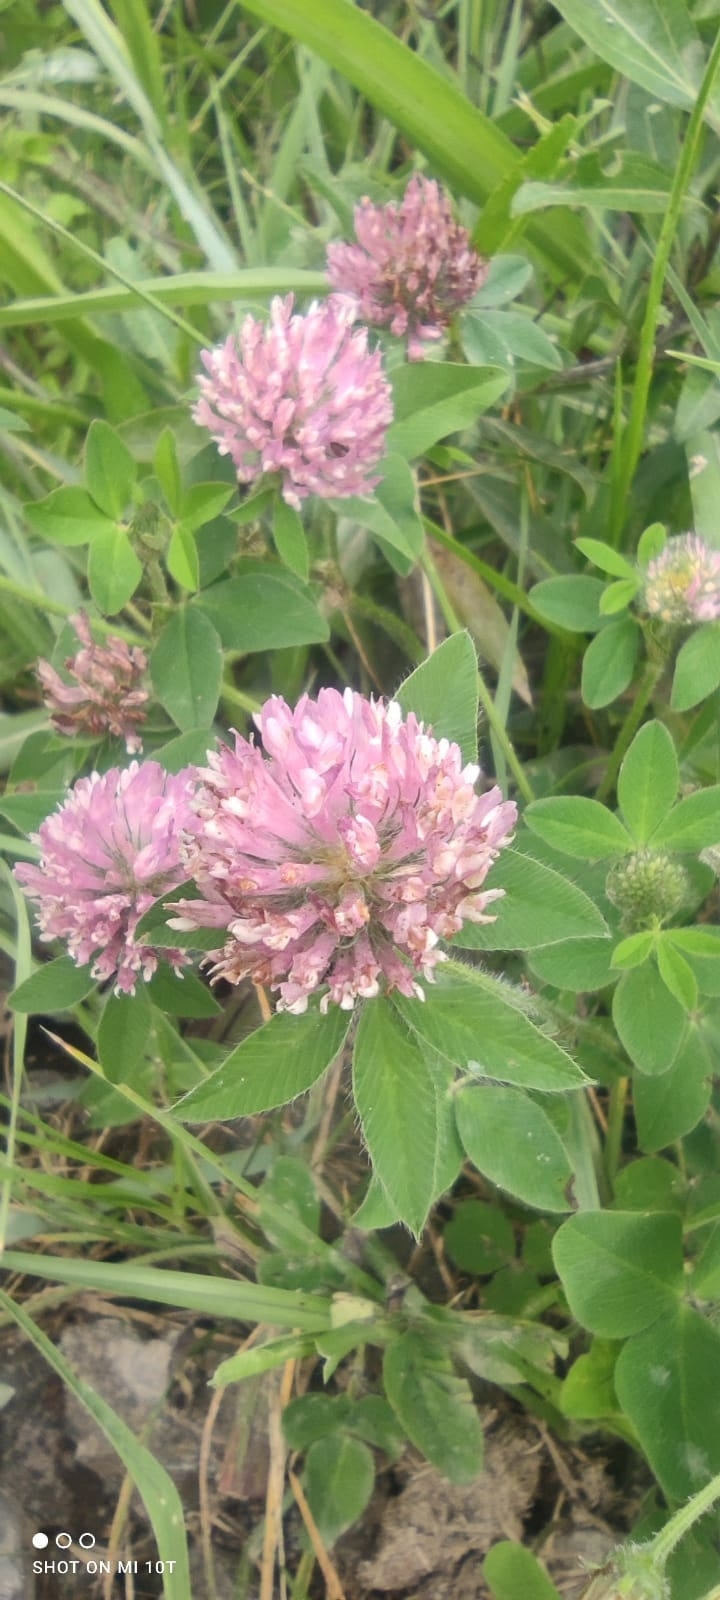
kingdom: Plantae
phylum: Tracheophyta
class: Magnoliopsida
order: Fabales
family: Fabaceae
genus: Trifolium
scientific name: Trifolium pratense
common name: Red clover
